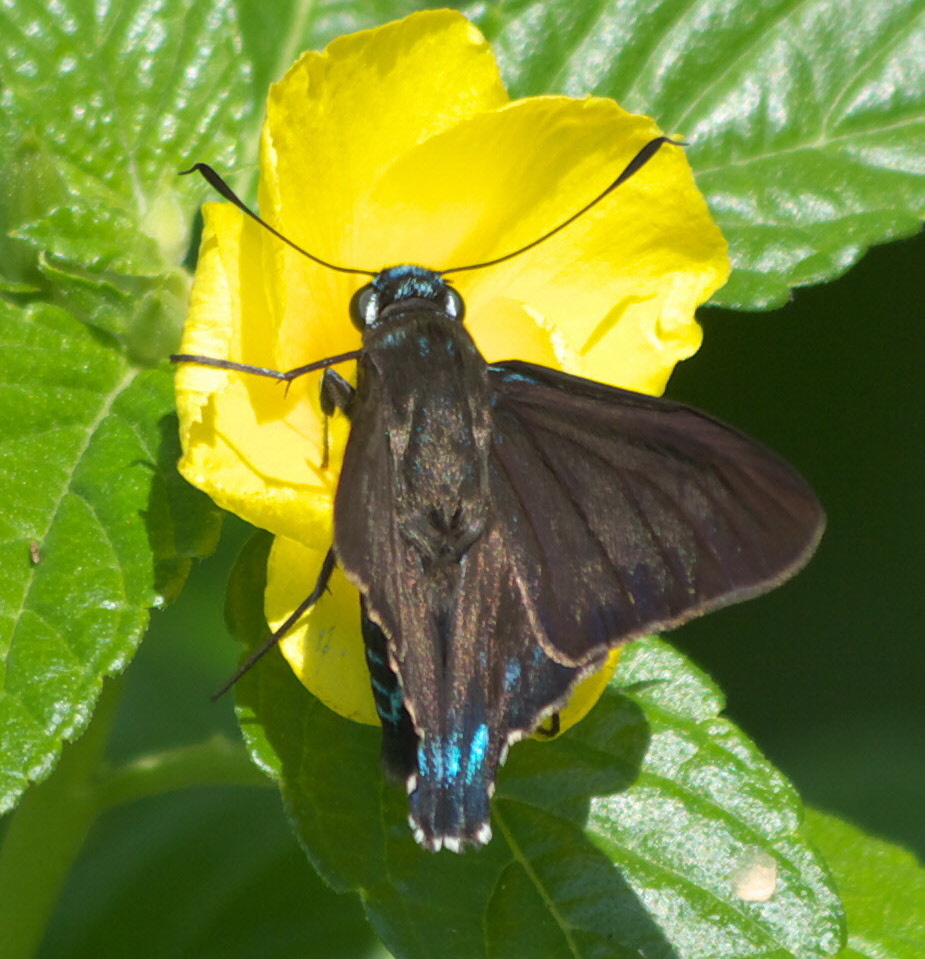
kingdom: Animalia
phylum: Arthropoda
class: Insecta
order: Lepidoptera
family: Hesperiidae
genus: Phocides
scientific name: Phocides pigmalion
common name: Mangrove skipper
